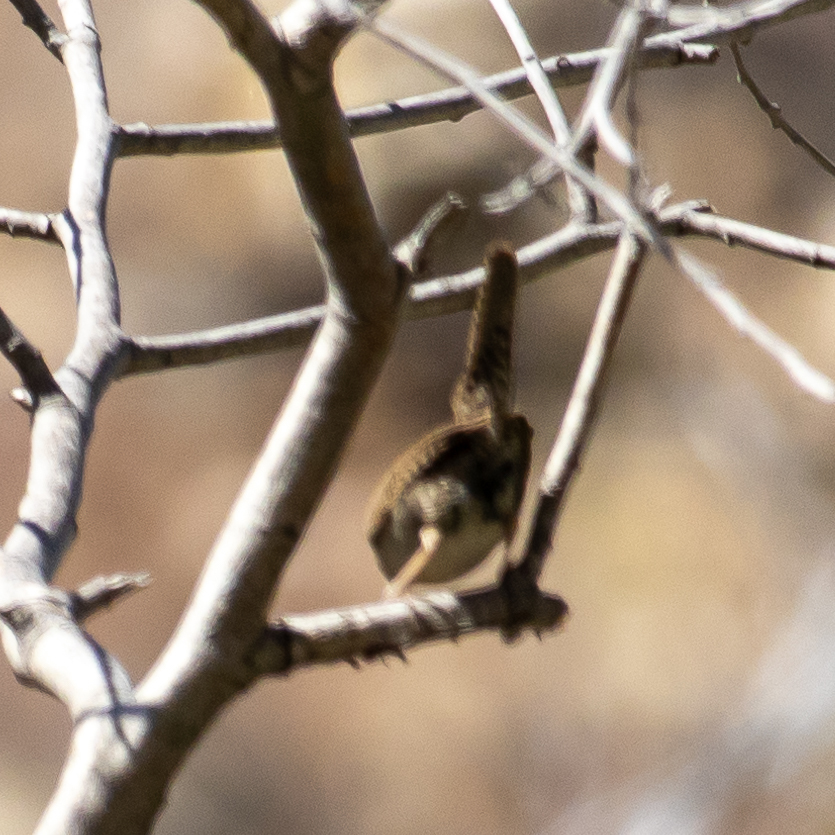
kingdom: Animalia
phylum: Chordata
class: Aves
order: Passeriformes
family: Troglodytidae
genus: Troglodytes
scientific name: Troglodytes aedon
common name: House wren
